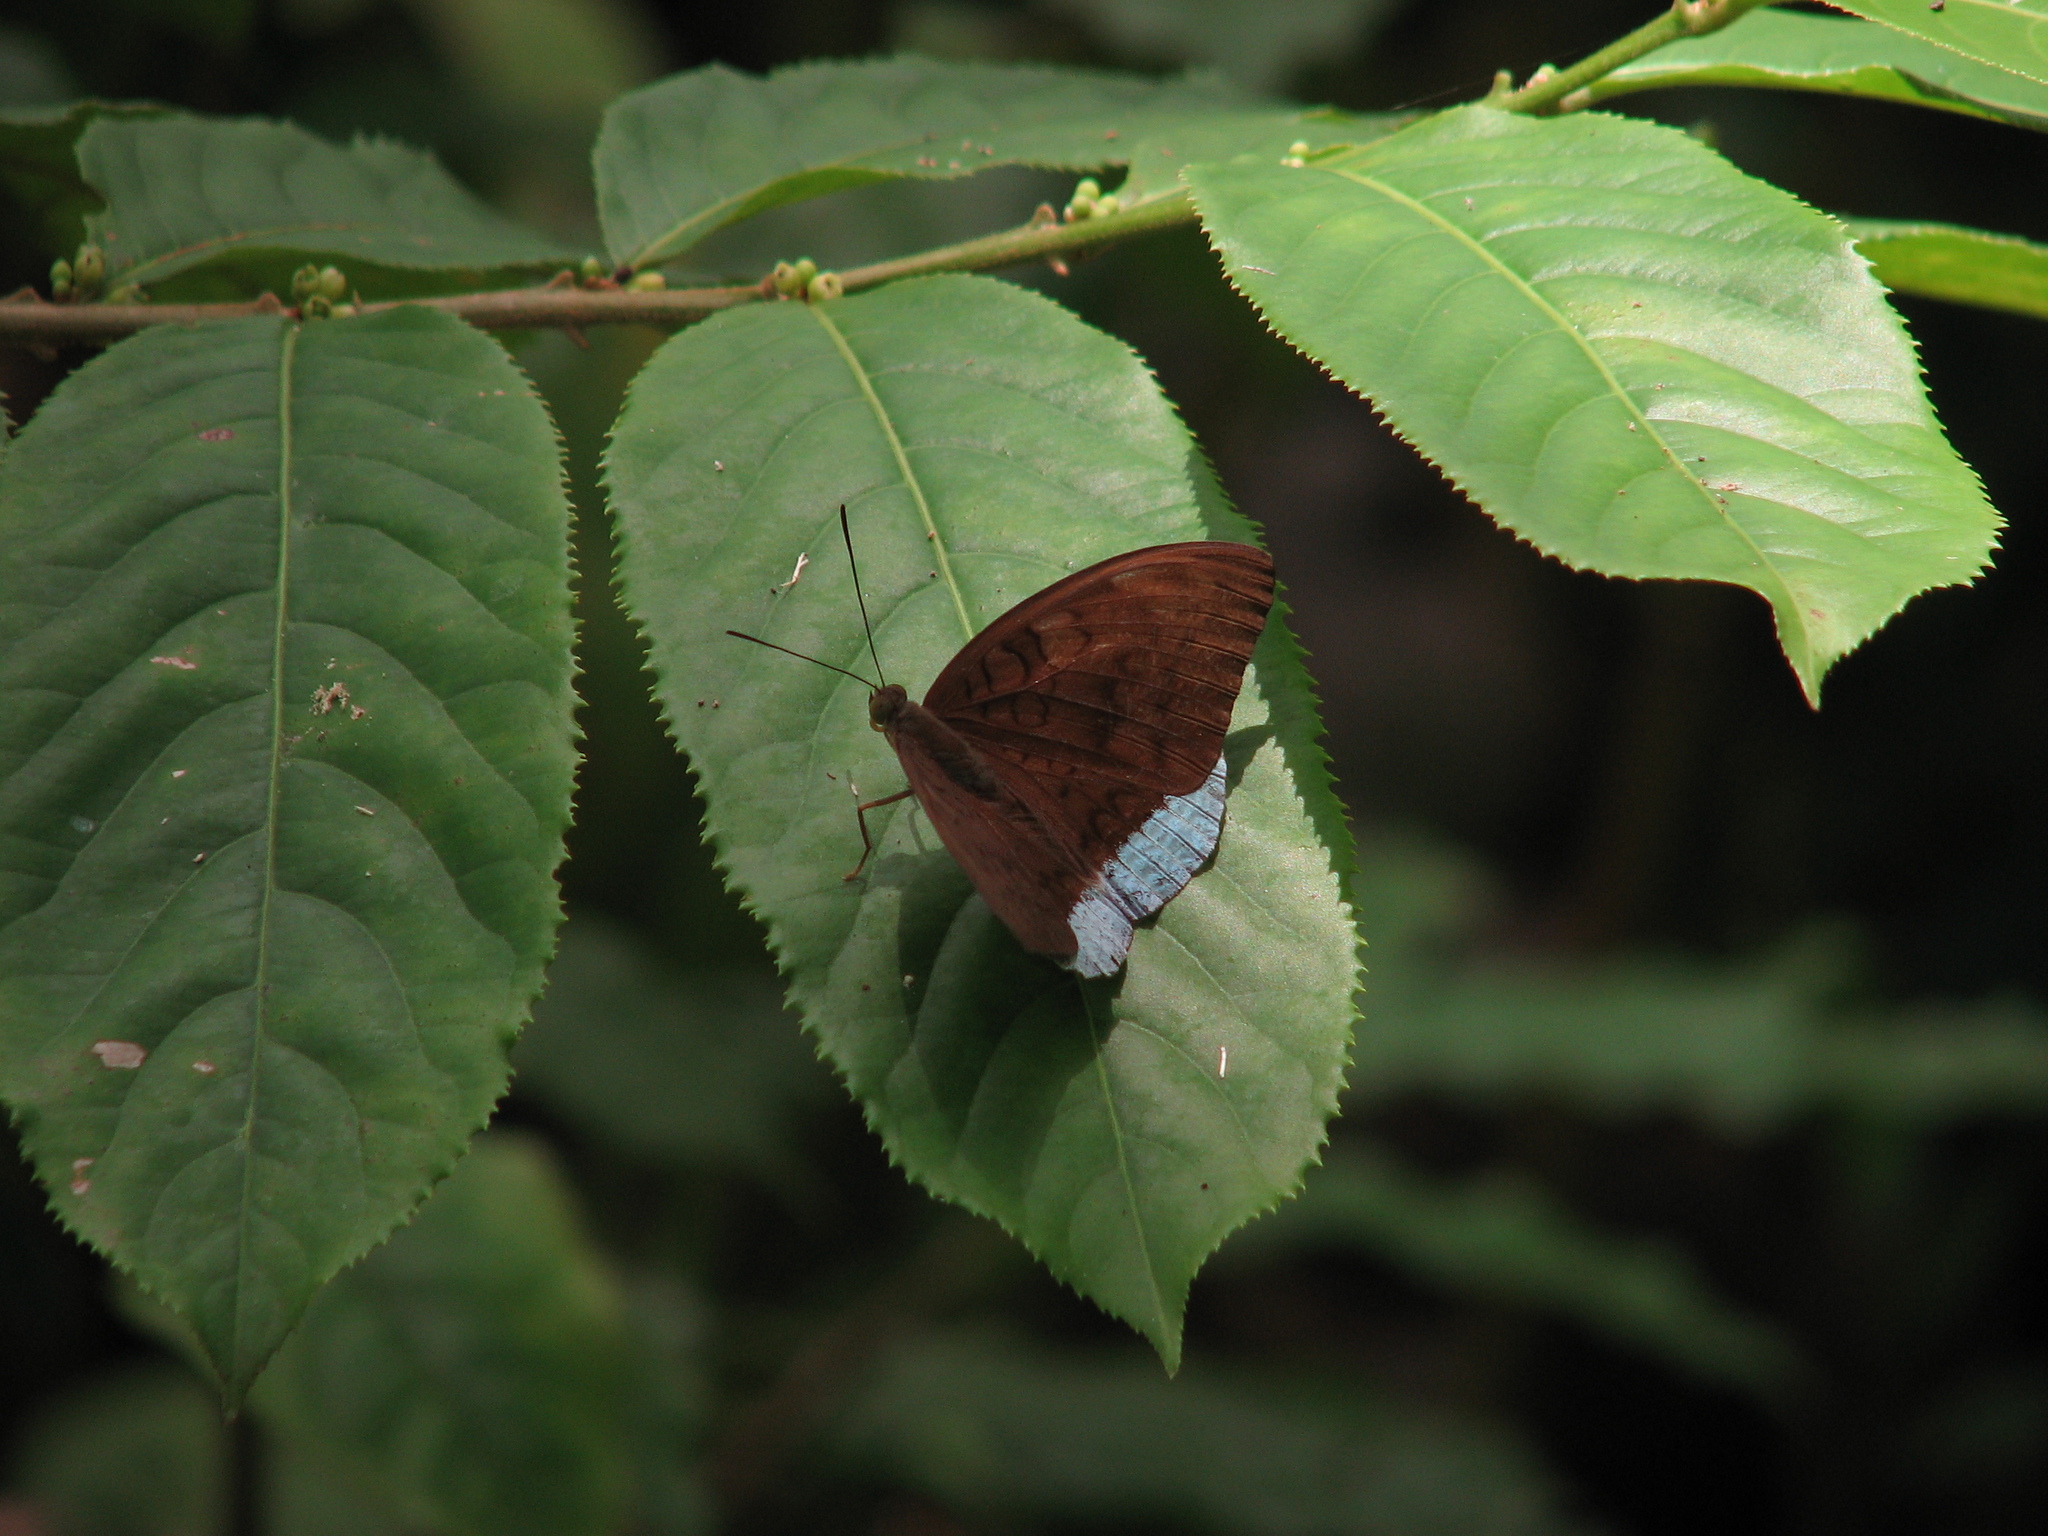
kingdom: Animalia
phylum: Arthropoda
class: Insecta
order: Lepidoptera
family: Nymphalidae
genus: Euthalia
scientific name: Euthalia telchinia
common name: Blue baron
